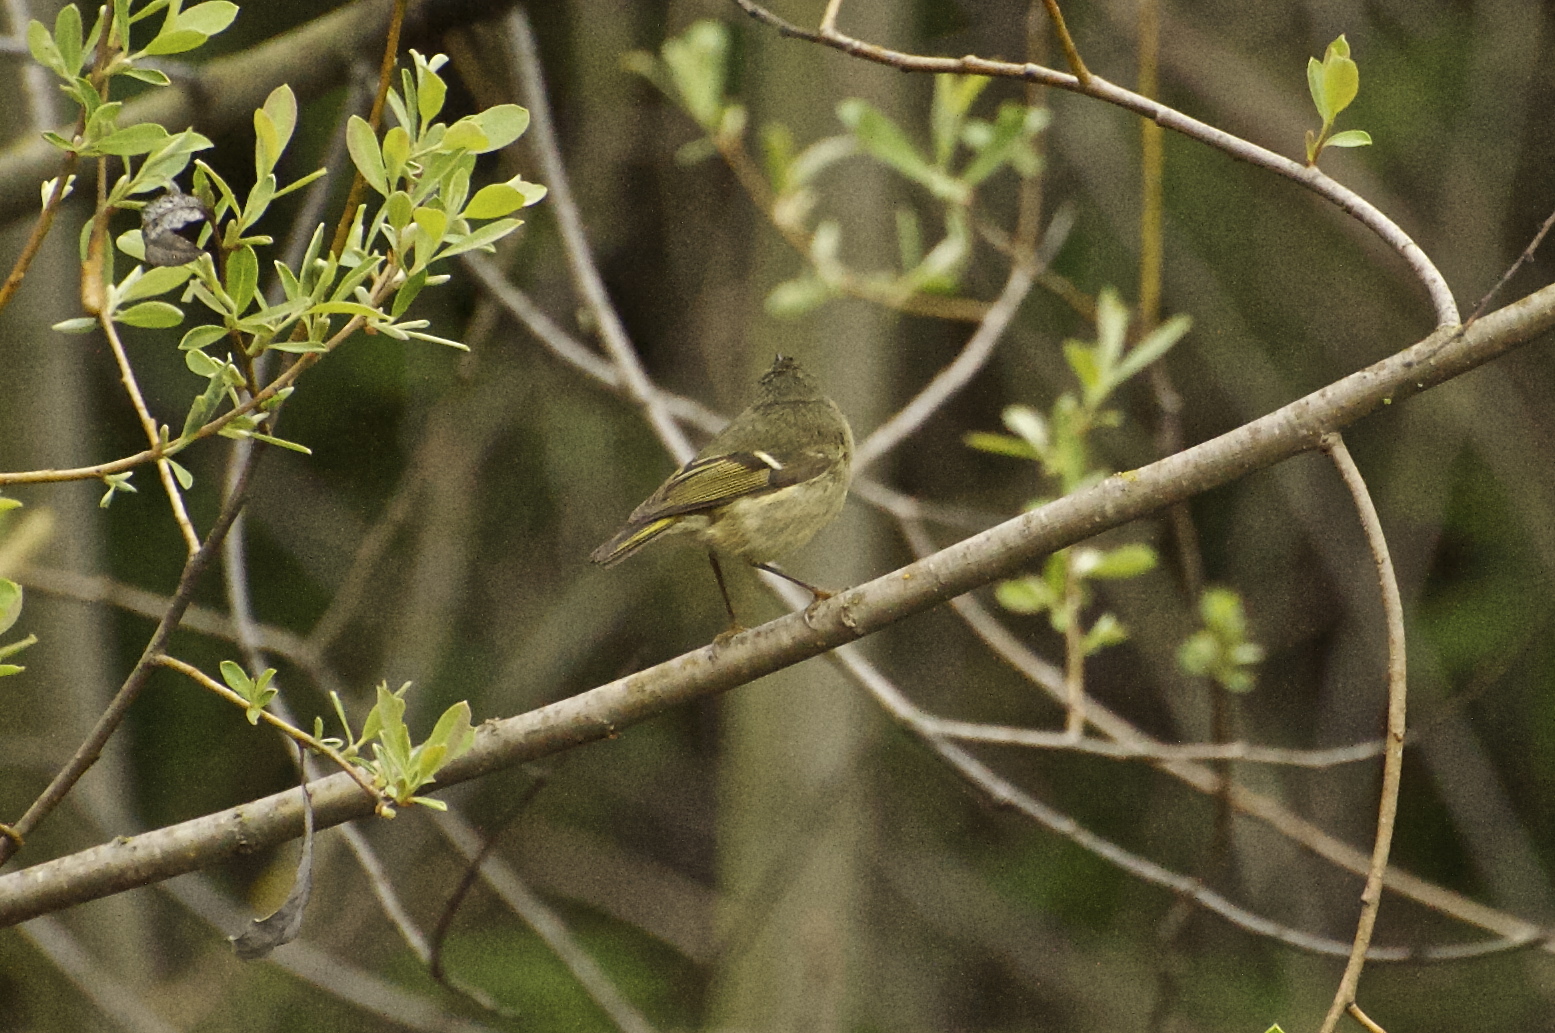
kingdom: Animalia
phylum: Chordata
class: Aves
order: Passeriformes
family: Regulidae
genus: Regulus
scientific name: Regulus calendula
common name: Ruby-crowned kinglet
